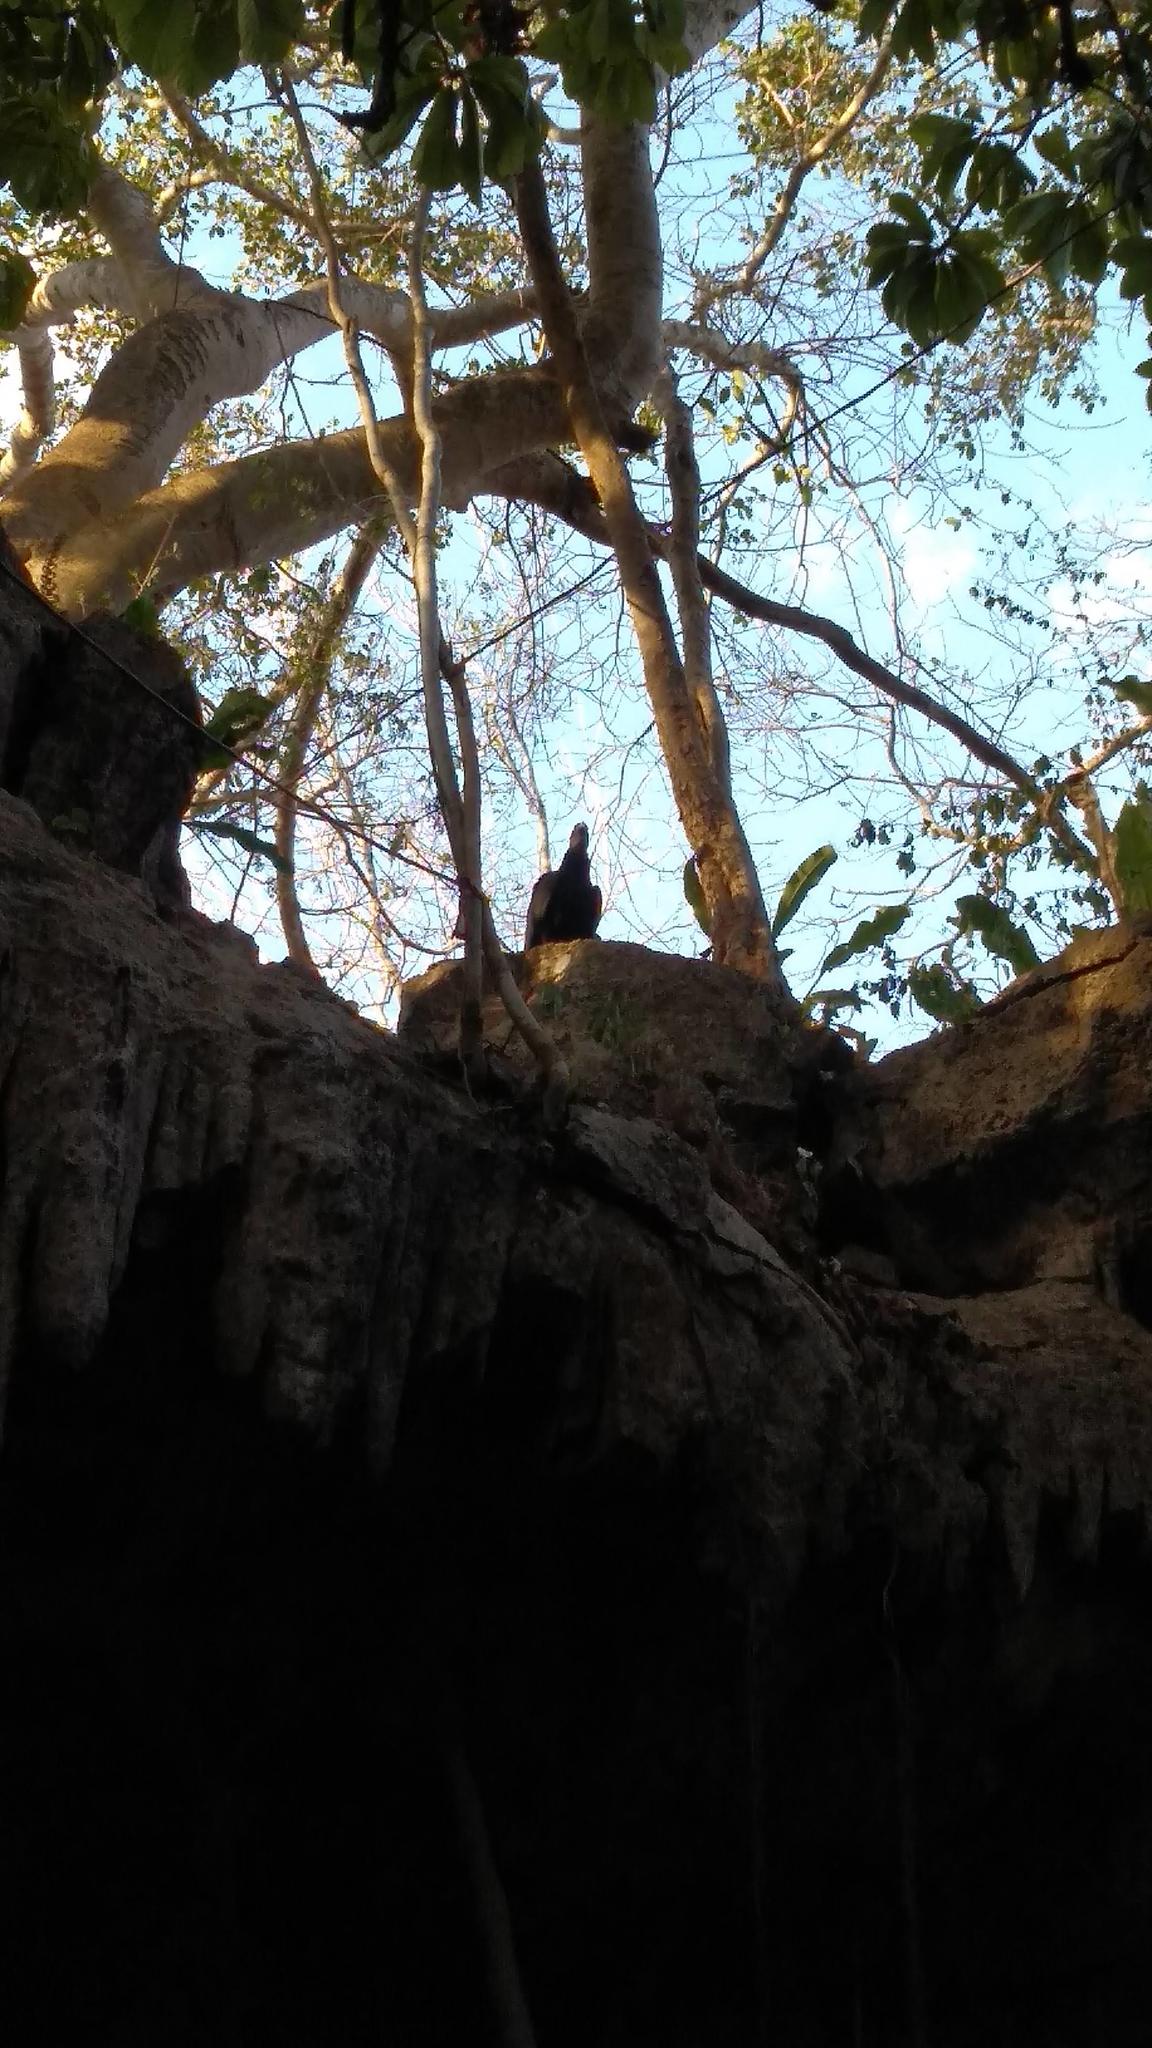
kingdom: Animalia
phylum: Chordata
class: Aves
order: Accipitriformes
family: Cathartidae
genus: Coragyps
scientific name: Coragyps atratus
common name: Black vulture
